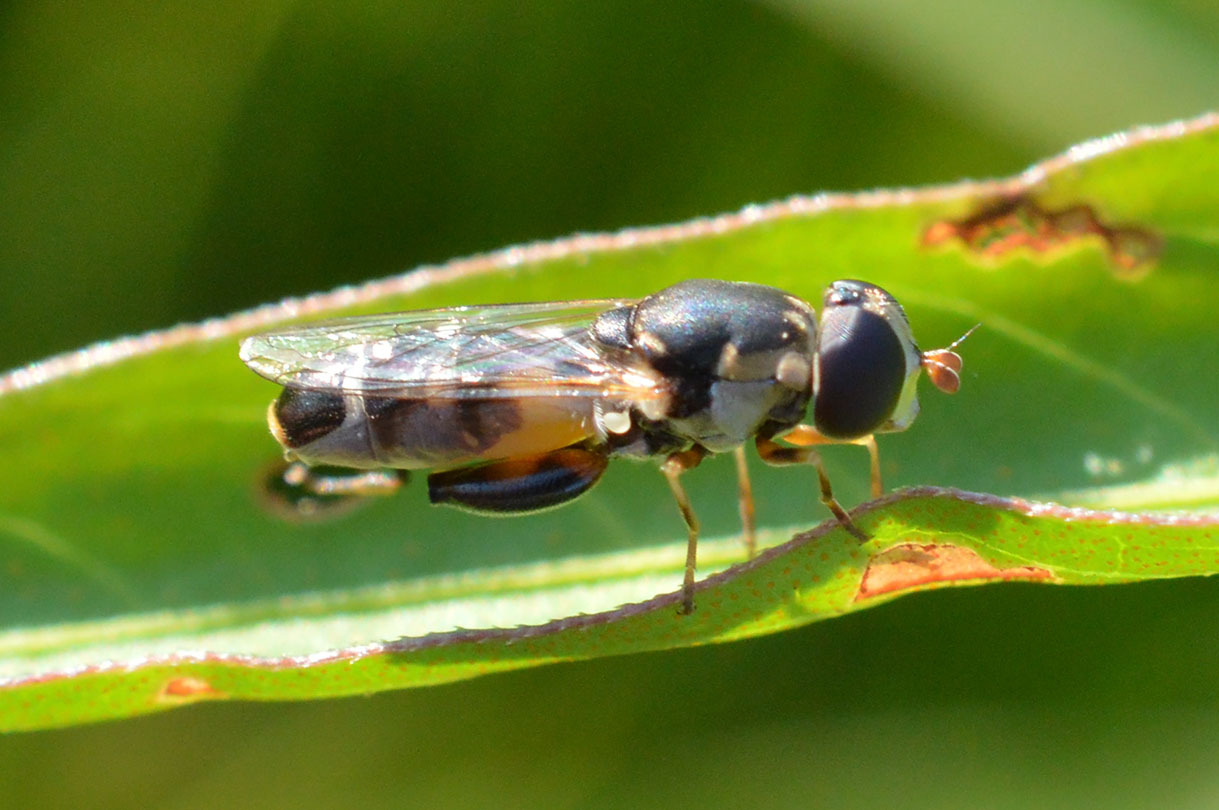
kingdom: Animalia
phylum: Arthropoda
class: Insecta
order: Diptera
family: Syrphidae
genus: Syritta
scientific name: Syritta pipiens
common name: Hover fly
